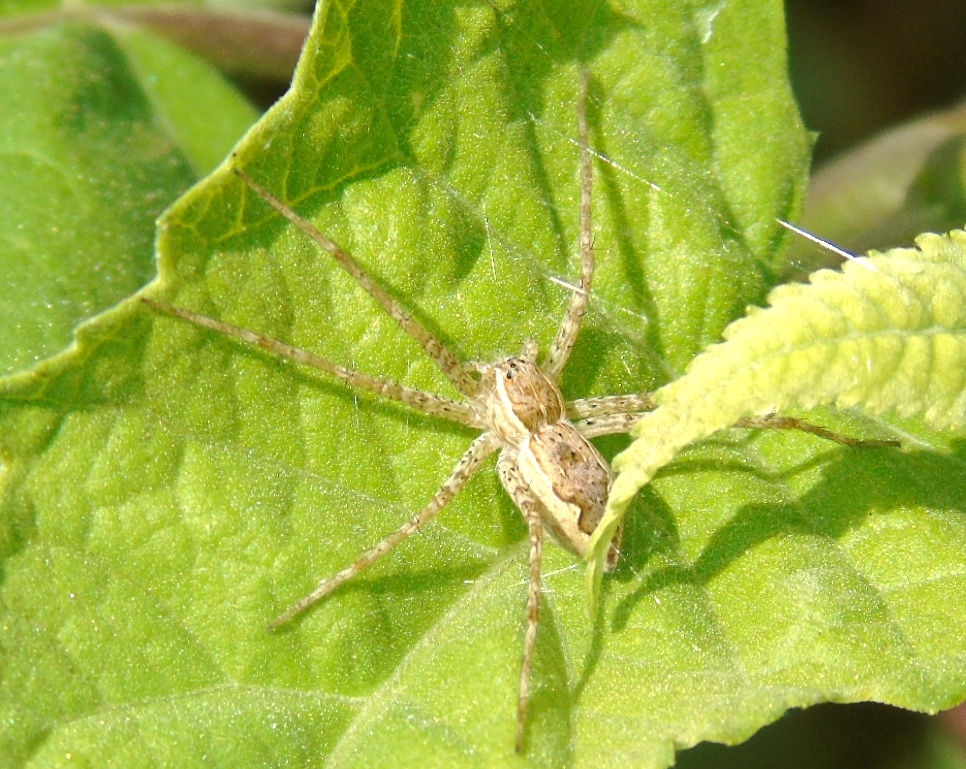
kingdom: Animalia
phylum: Arthropoda
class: Arachnida
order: Araneae
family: Pisauridae
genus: Tinus
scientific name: Tinus
